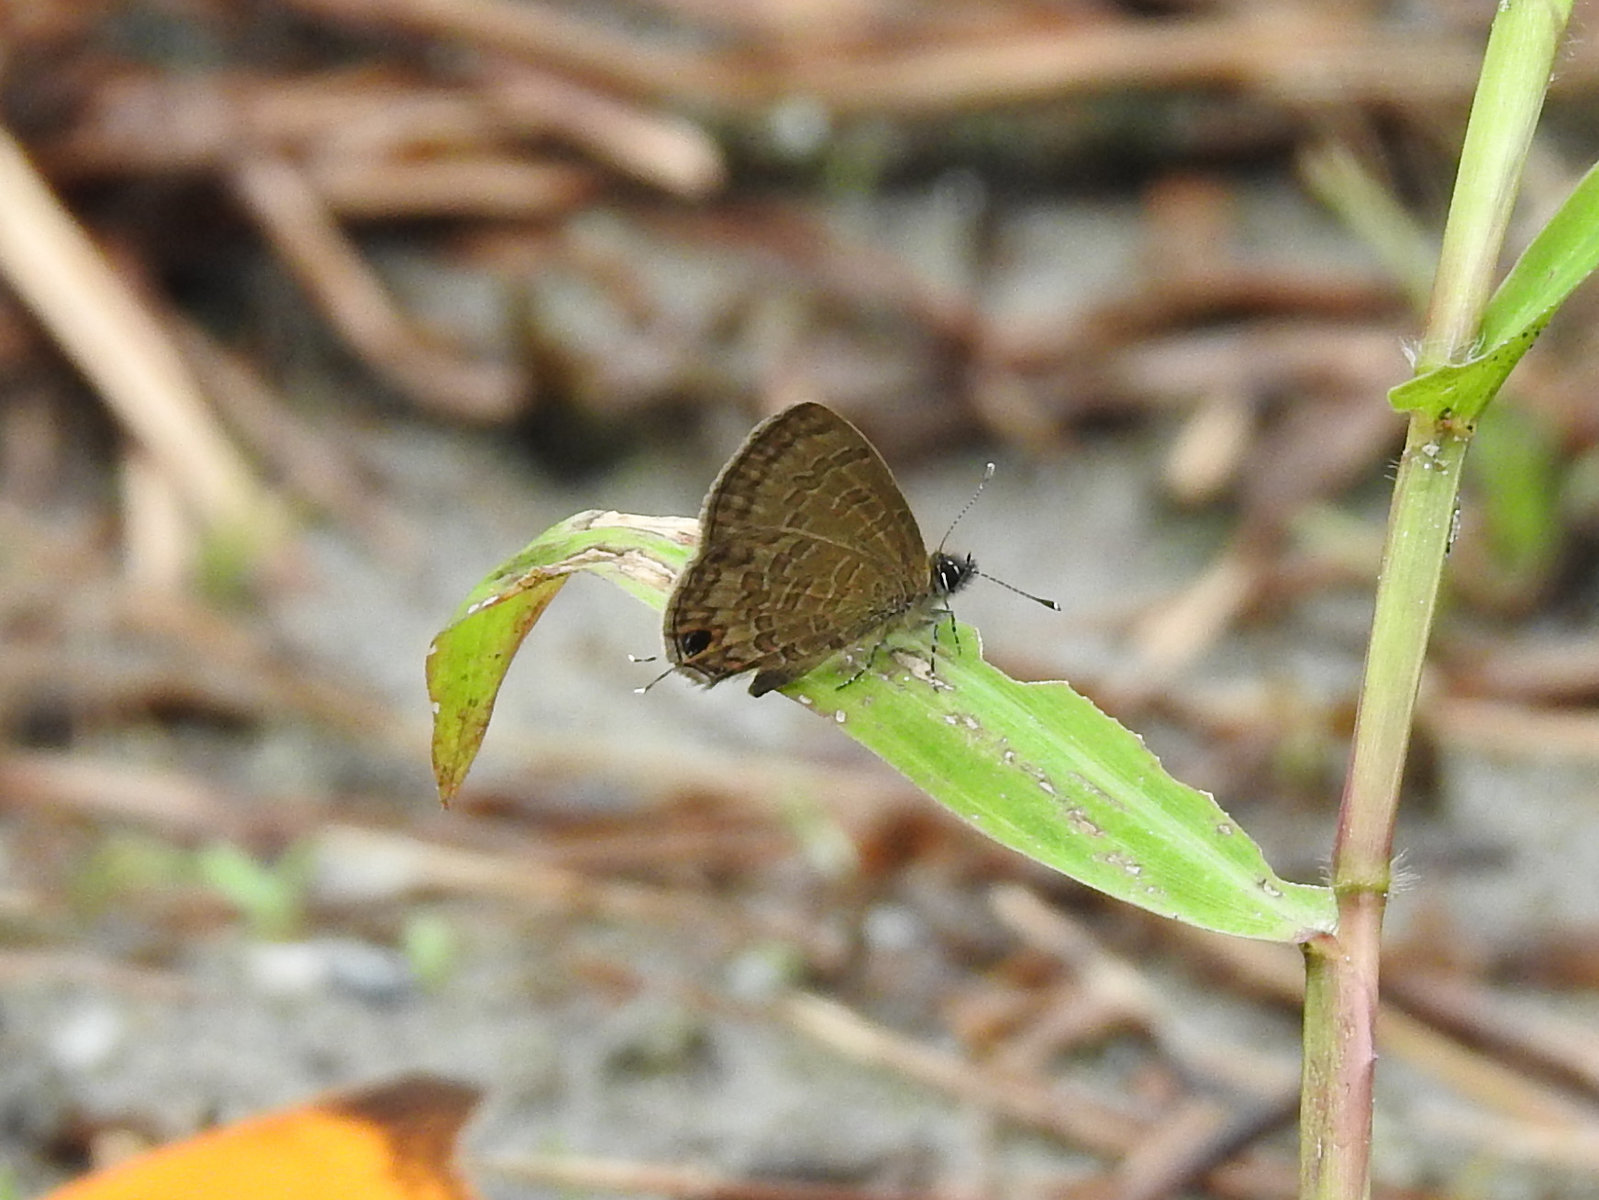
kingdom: Animalia
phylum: Arthropoda
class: Insecta
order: Lepidoptera
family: Lycaenidae
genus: Prosotas
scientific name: Prosotas nora
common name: Common line blue
